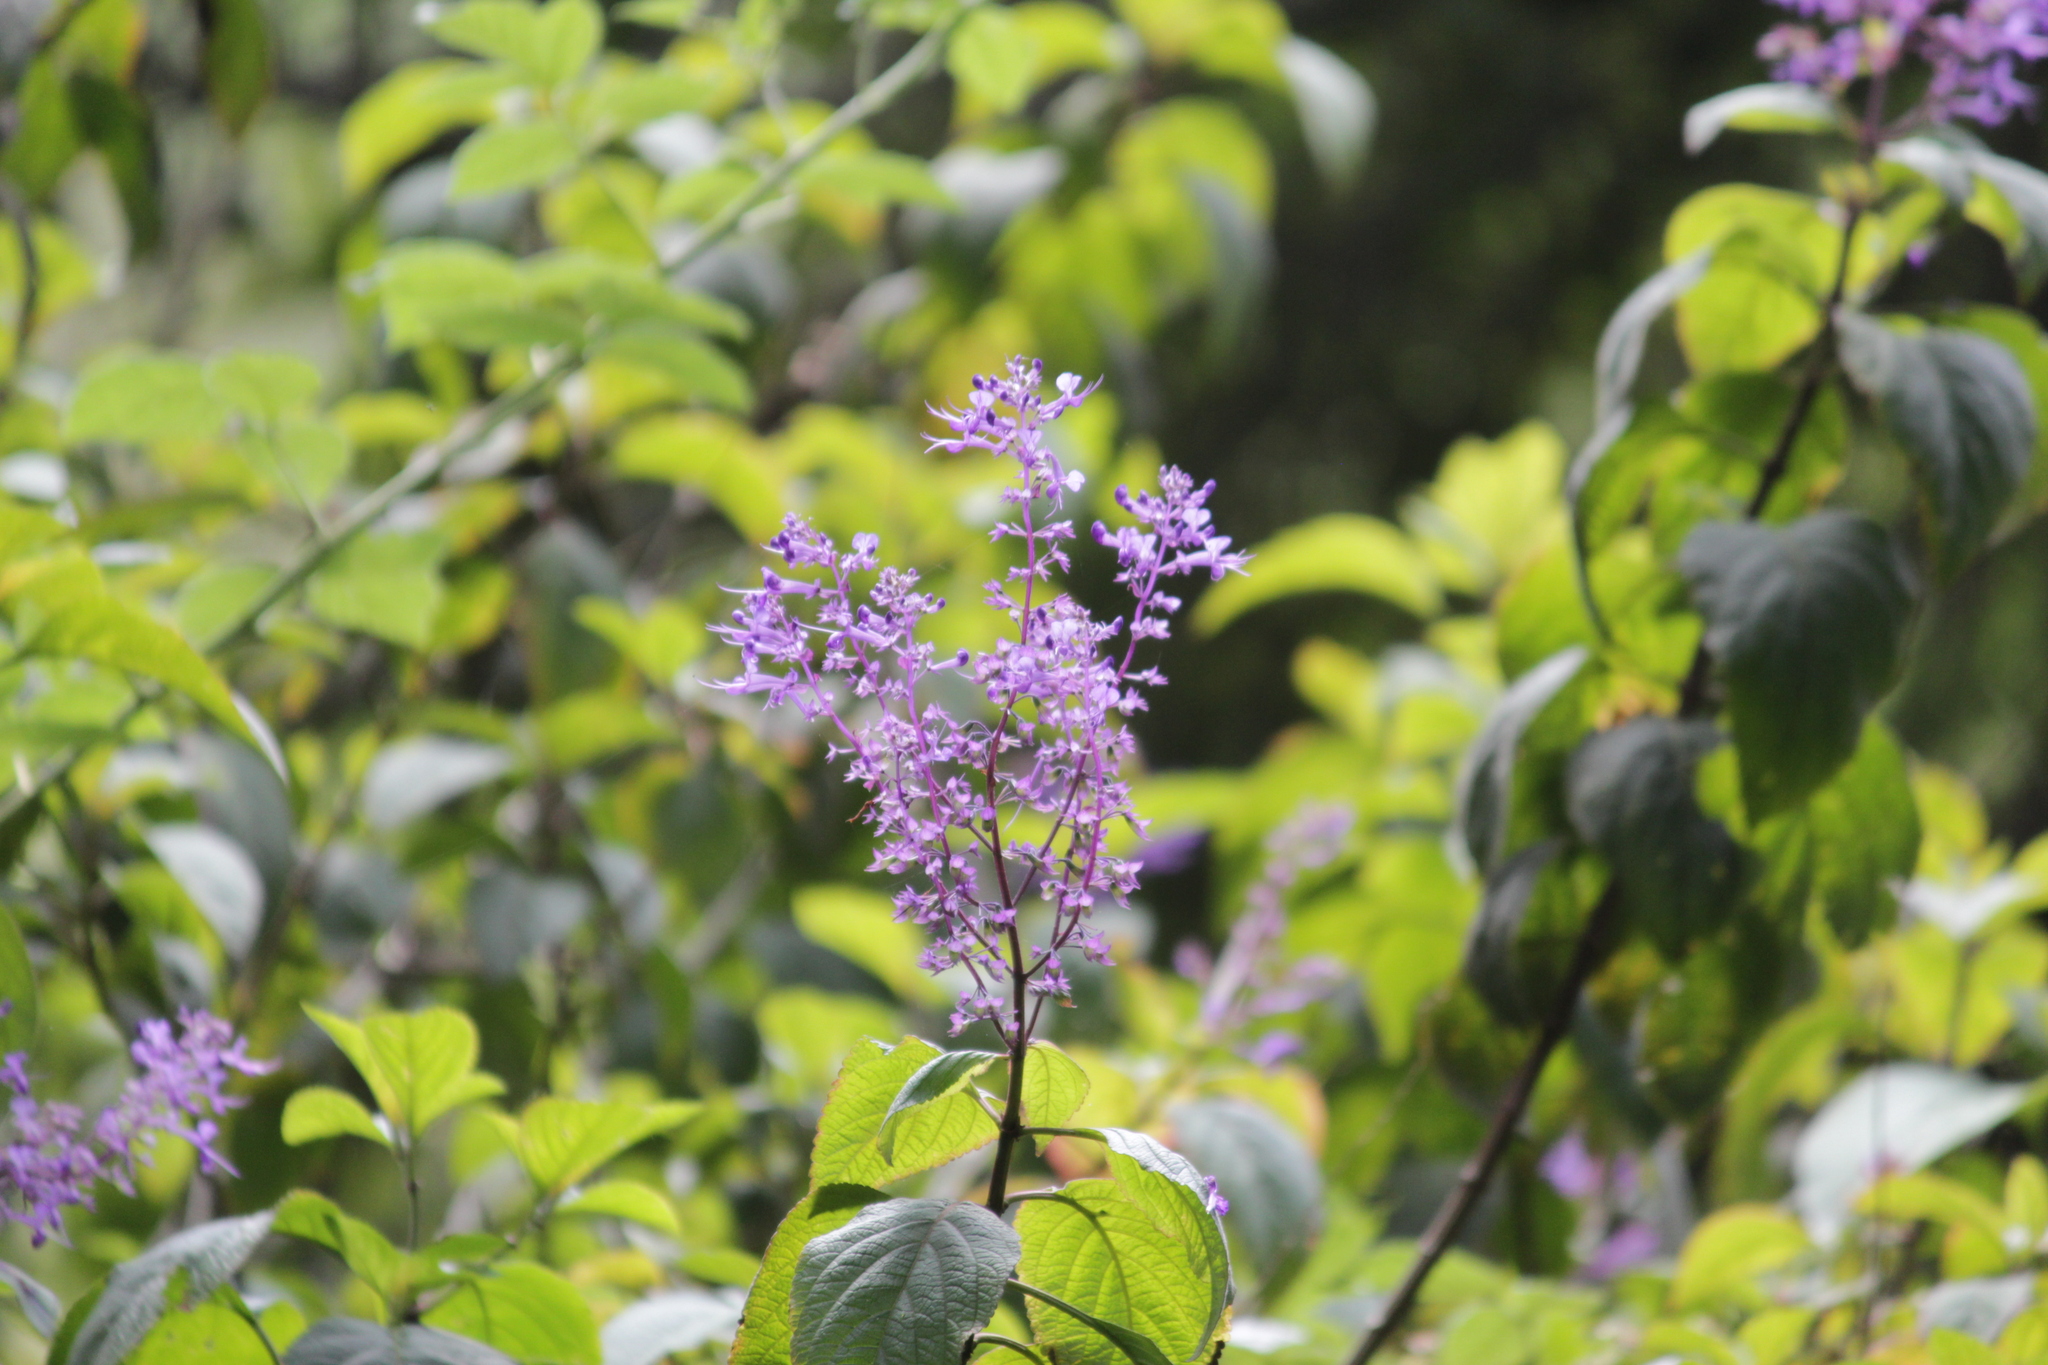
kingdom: Plantae
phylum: Tracheophyta
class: Magnoliopsida
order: Lamiales
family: Lamiaceae
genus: Plectranthus
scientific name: Plectranthus ecklonii
